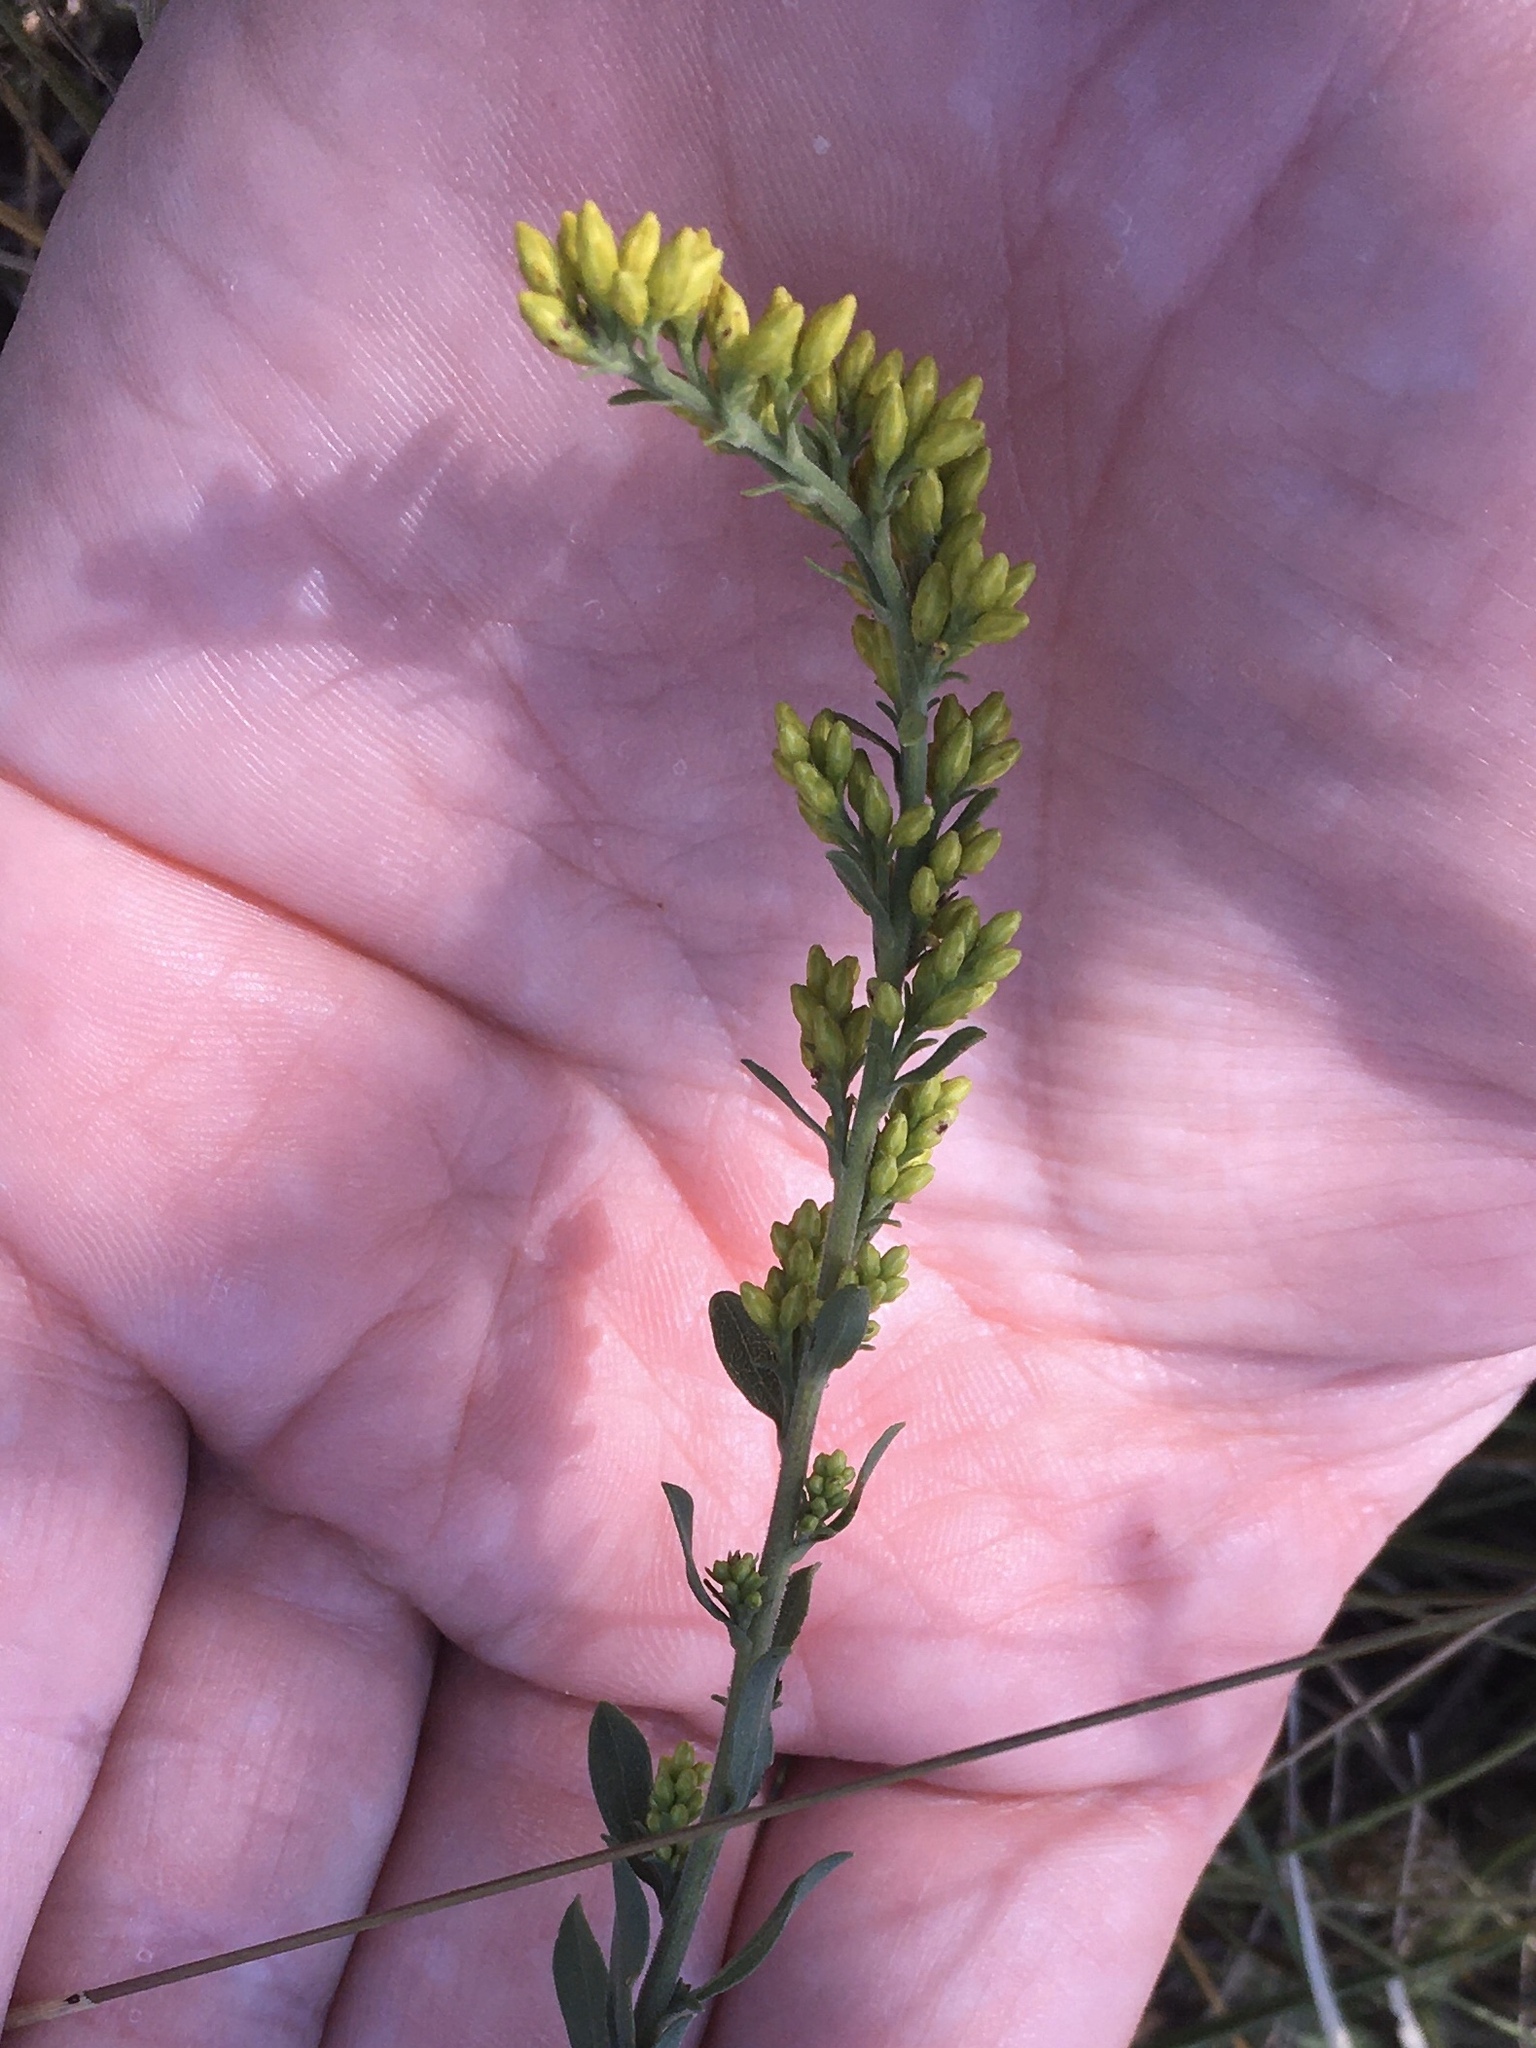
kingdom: Plantae
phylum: Tracheophyta
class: Magnoliopsida
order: Asterales
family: Asteraceae
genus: Solidago
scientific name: Solidago nemoralis
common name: Grey goldenrod
